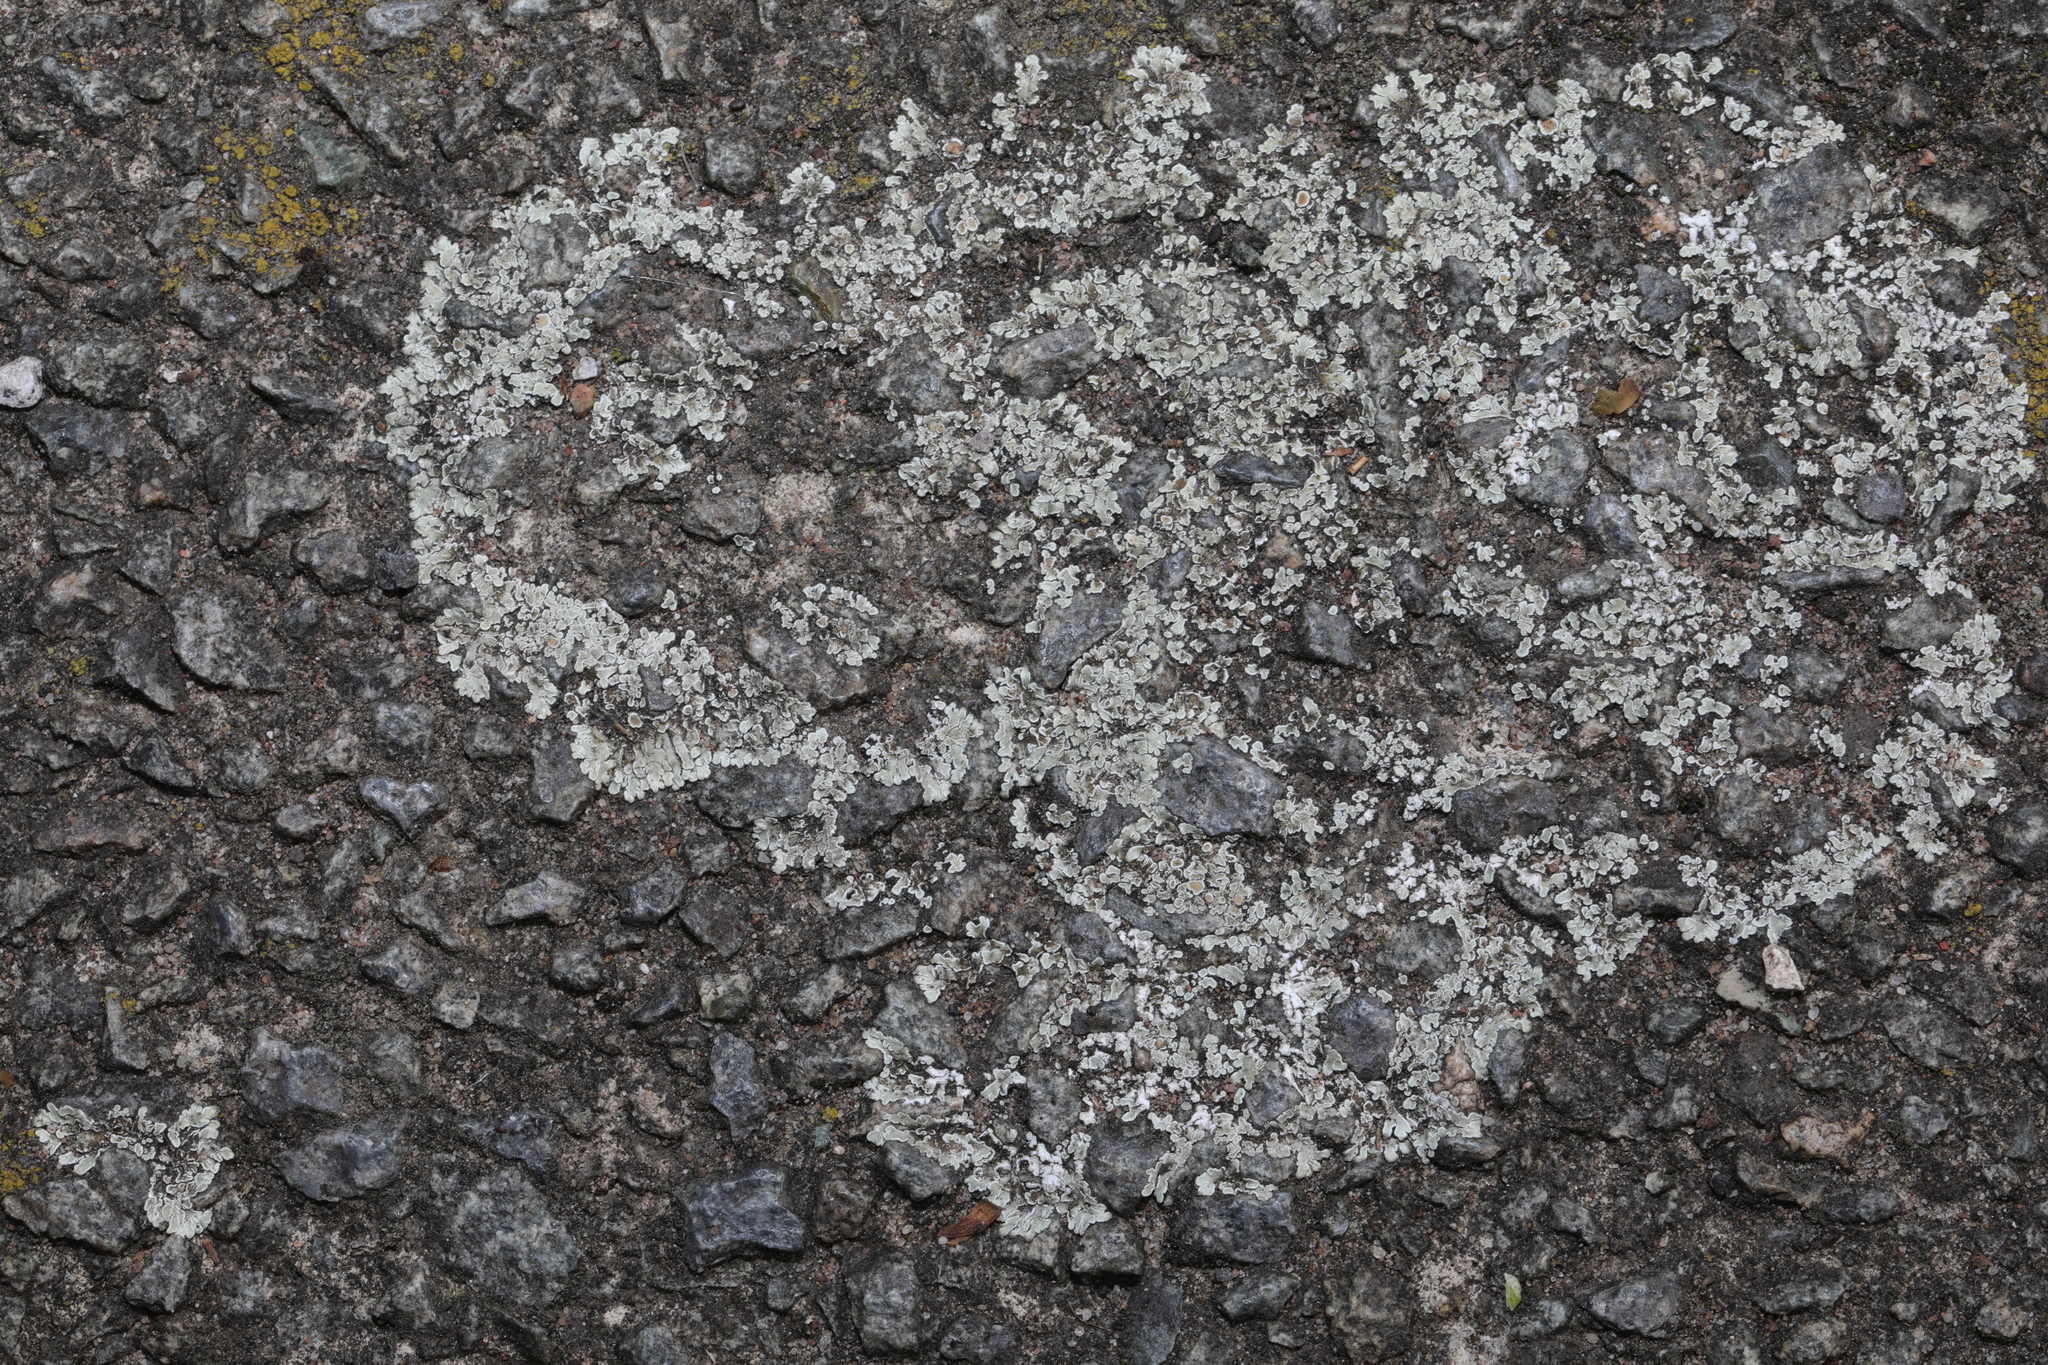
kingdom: Fungi
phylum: Ascomycota
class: Lecanoromycetes
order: Lecanorales
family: Lecanoraceae
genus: Protoparmeliopsis
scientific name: Protoparmeliopsis muralis
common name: Stonewall rim lichen
